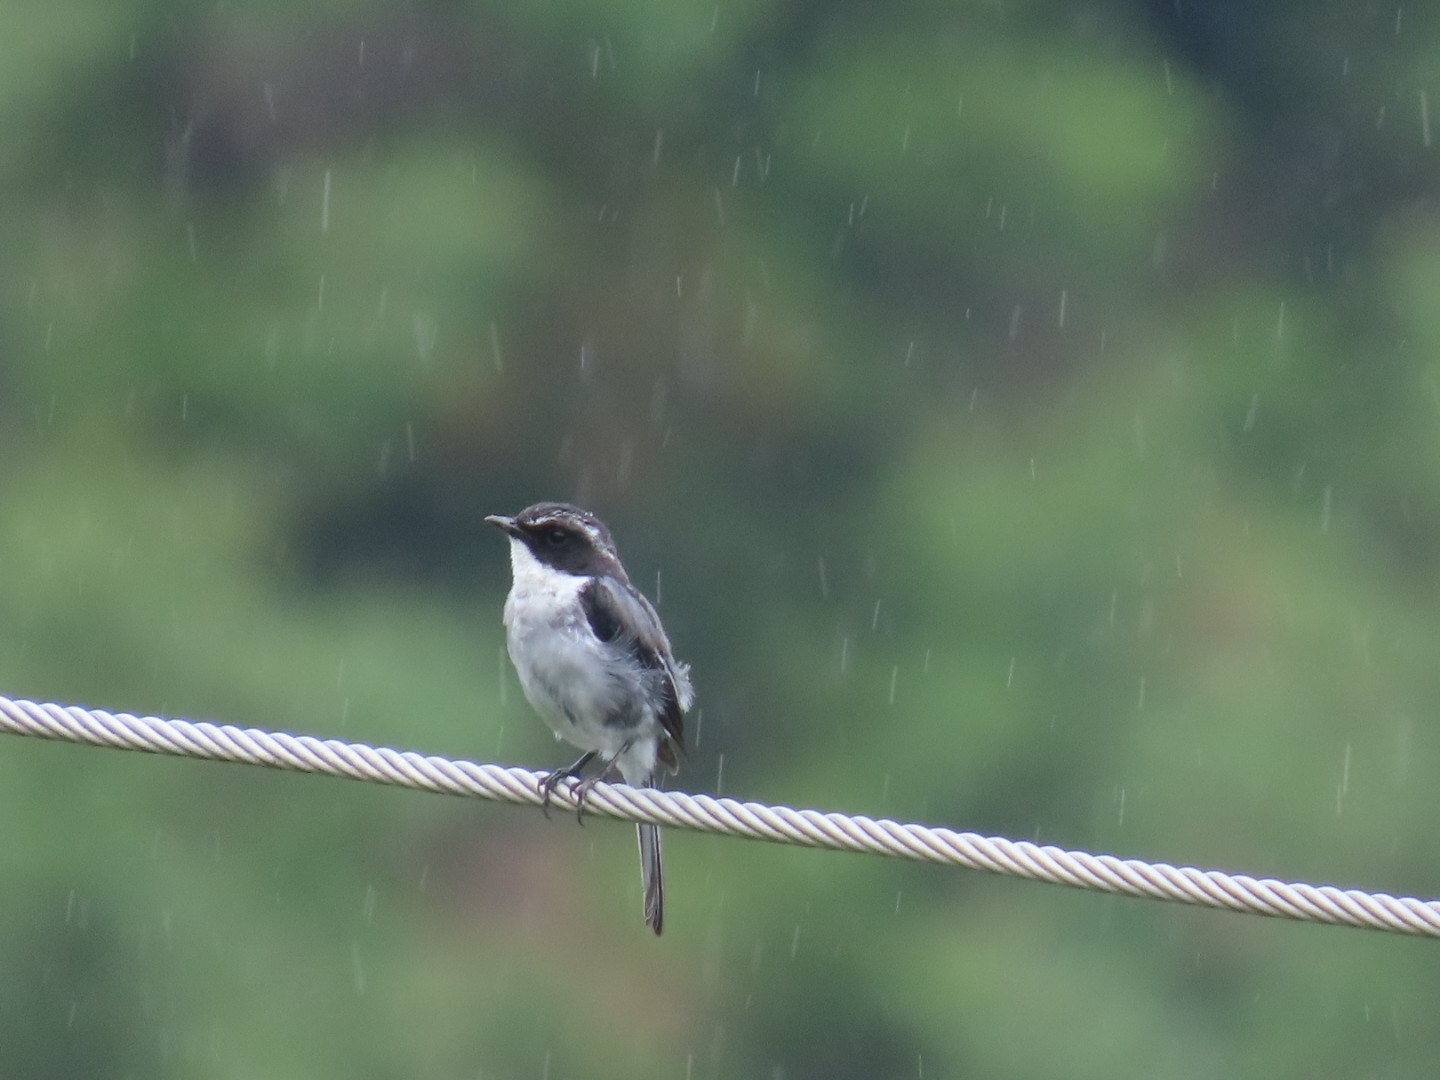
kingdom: Animalia
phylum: Chordata
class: Aves
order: Passeriformes
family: Muscicapidae
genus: Saxicola
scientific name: Saxicola ferreus
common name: Grey bush chat
